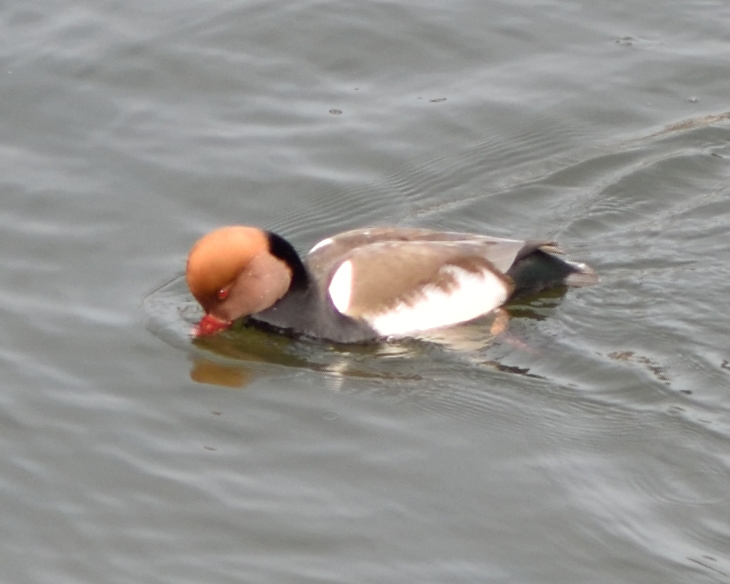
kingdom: Animalia
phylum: Chordata
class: Aves
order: Anseriformes
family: Anatidae
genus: Netta
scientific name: Netta rufina
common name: Red-crested pochard
